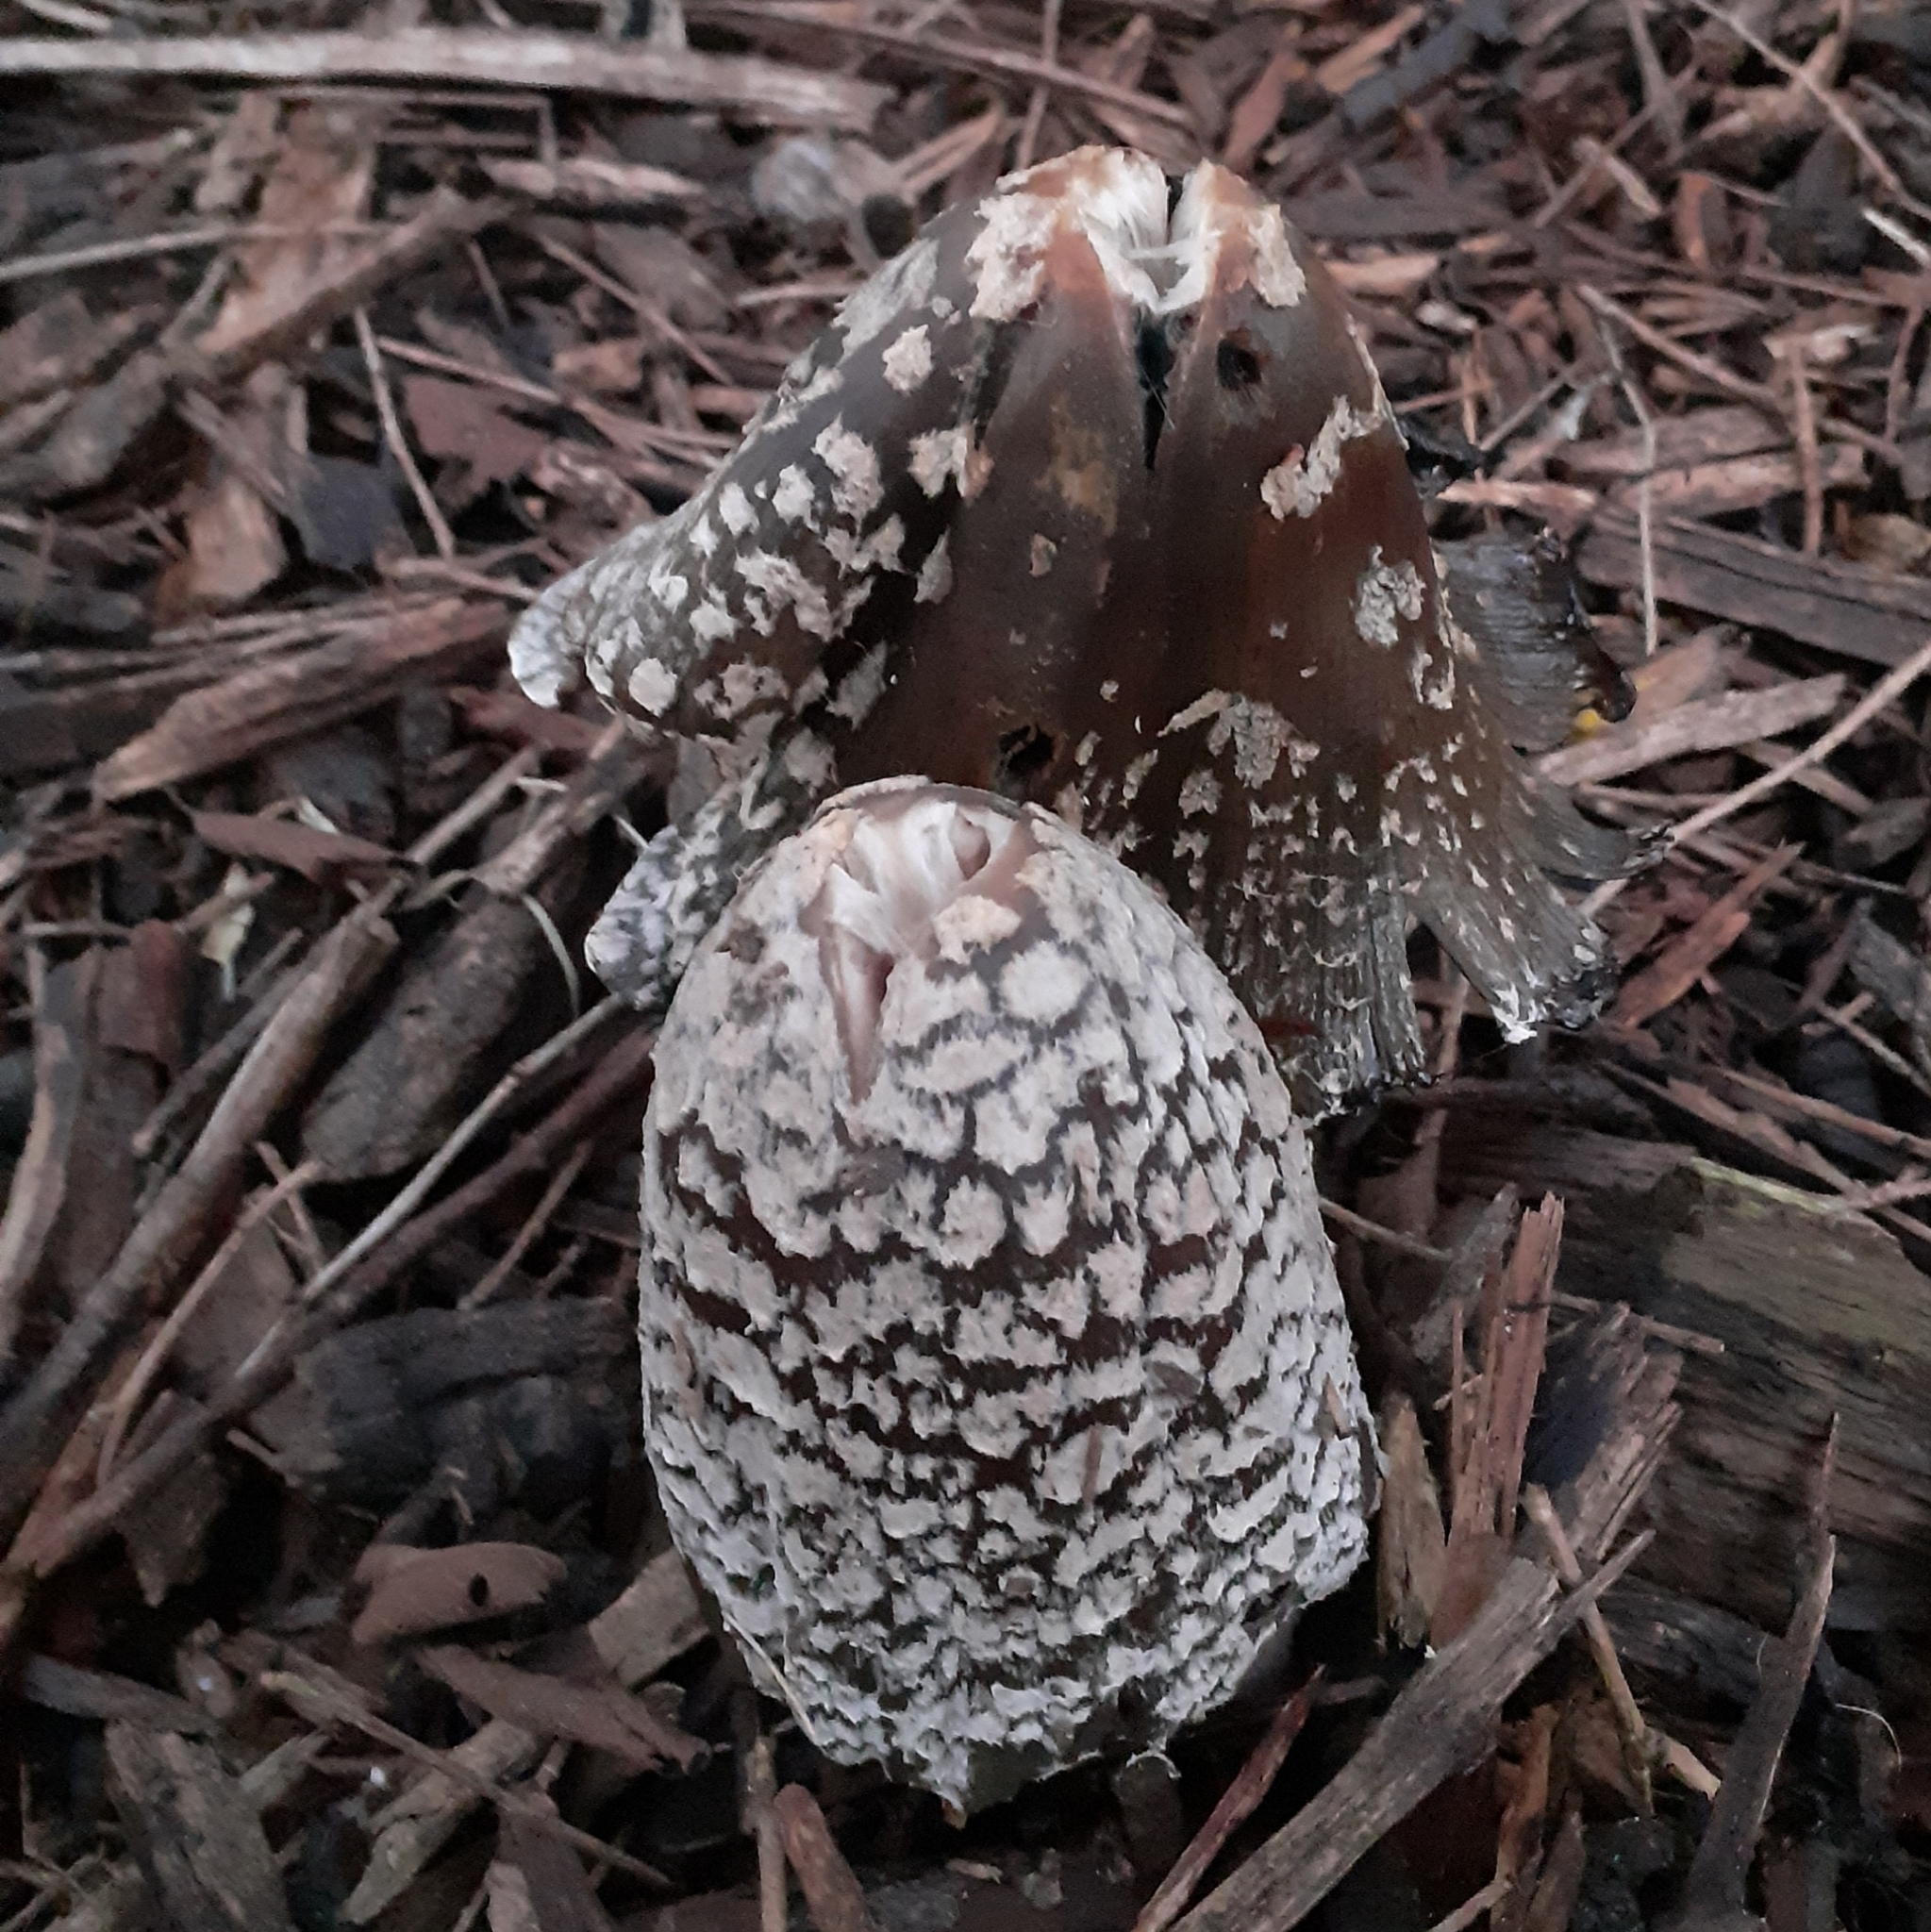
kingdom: Fungi
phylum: Basidiomycota
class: Agaricomycetes
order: Agaricales
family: Psathyrellaceae
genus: Coprinopsis
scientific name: Coprinopsis picacea
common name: Magpie inkcap
